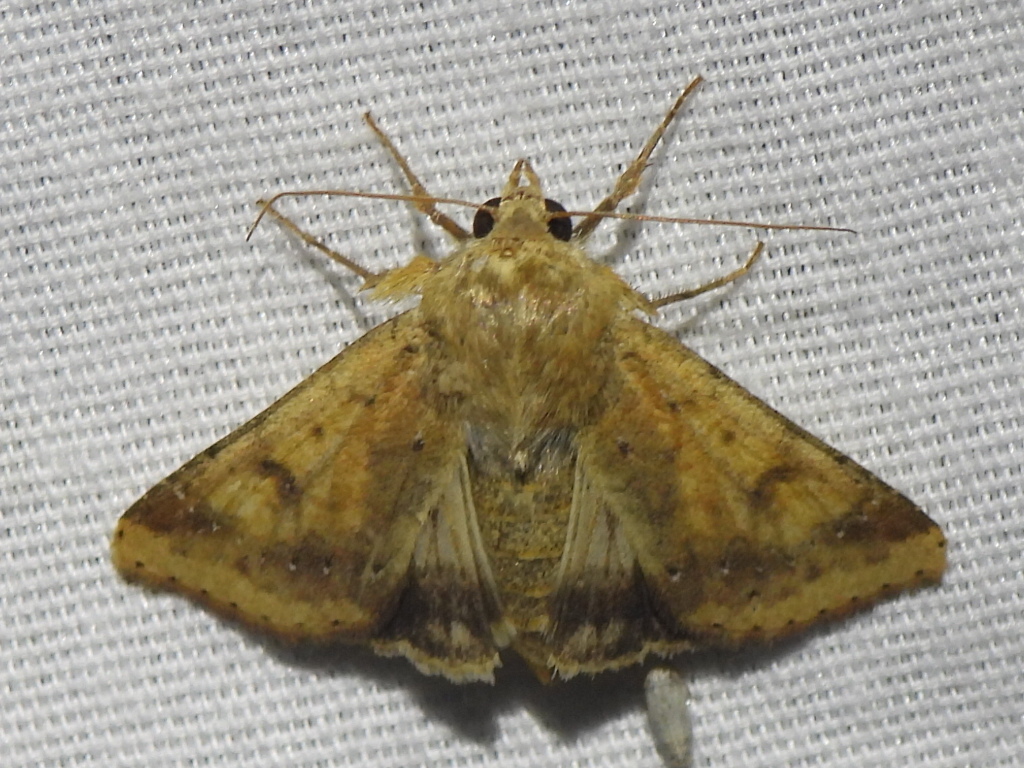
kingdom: Animalia
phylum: Arthropoda
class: Insecta
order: Lepidoptera
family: Noctuidae
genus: Helicoverpa
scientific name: Helicoverpa zea
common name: Bollworm
